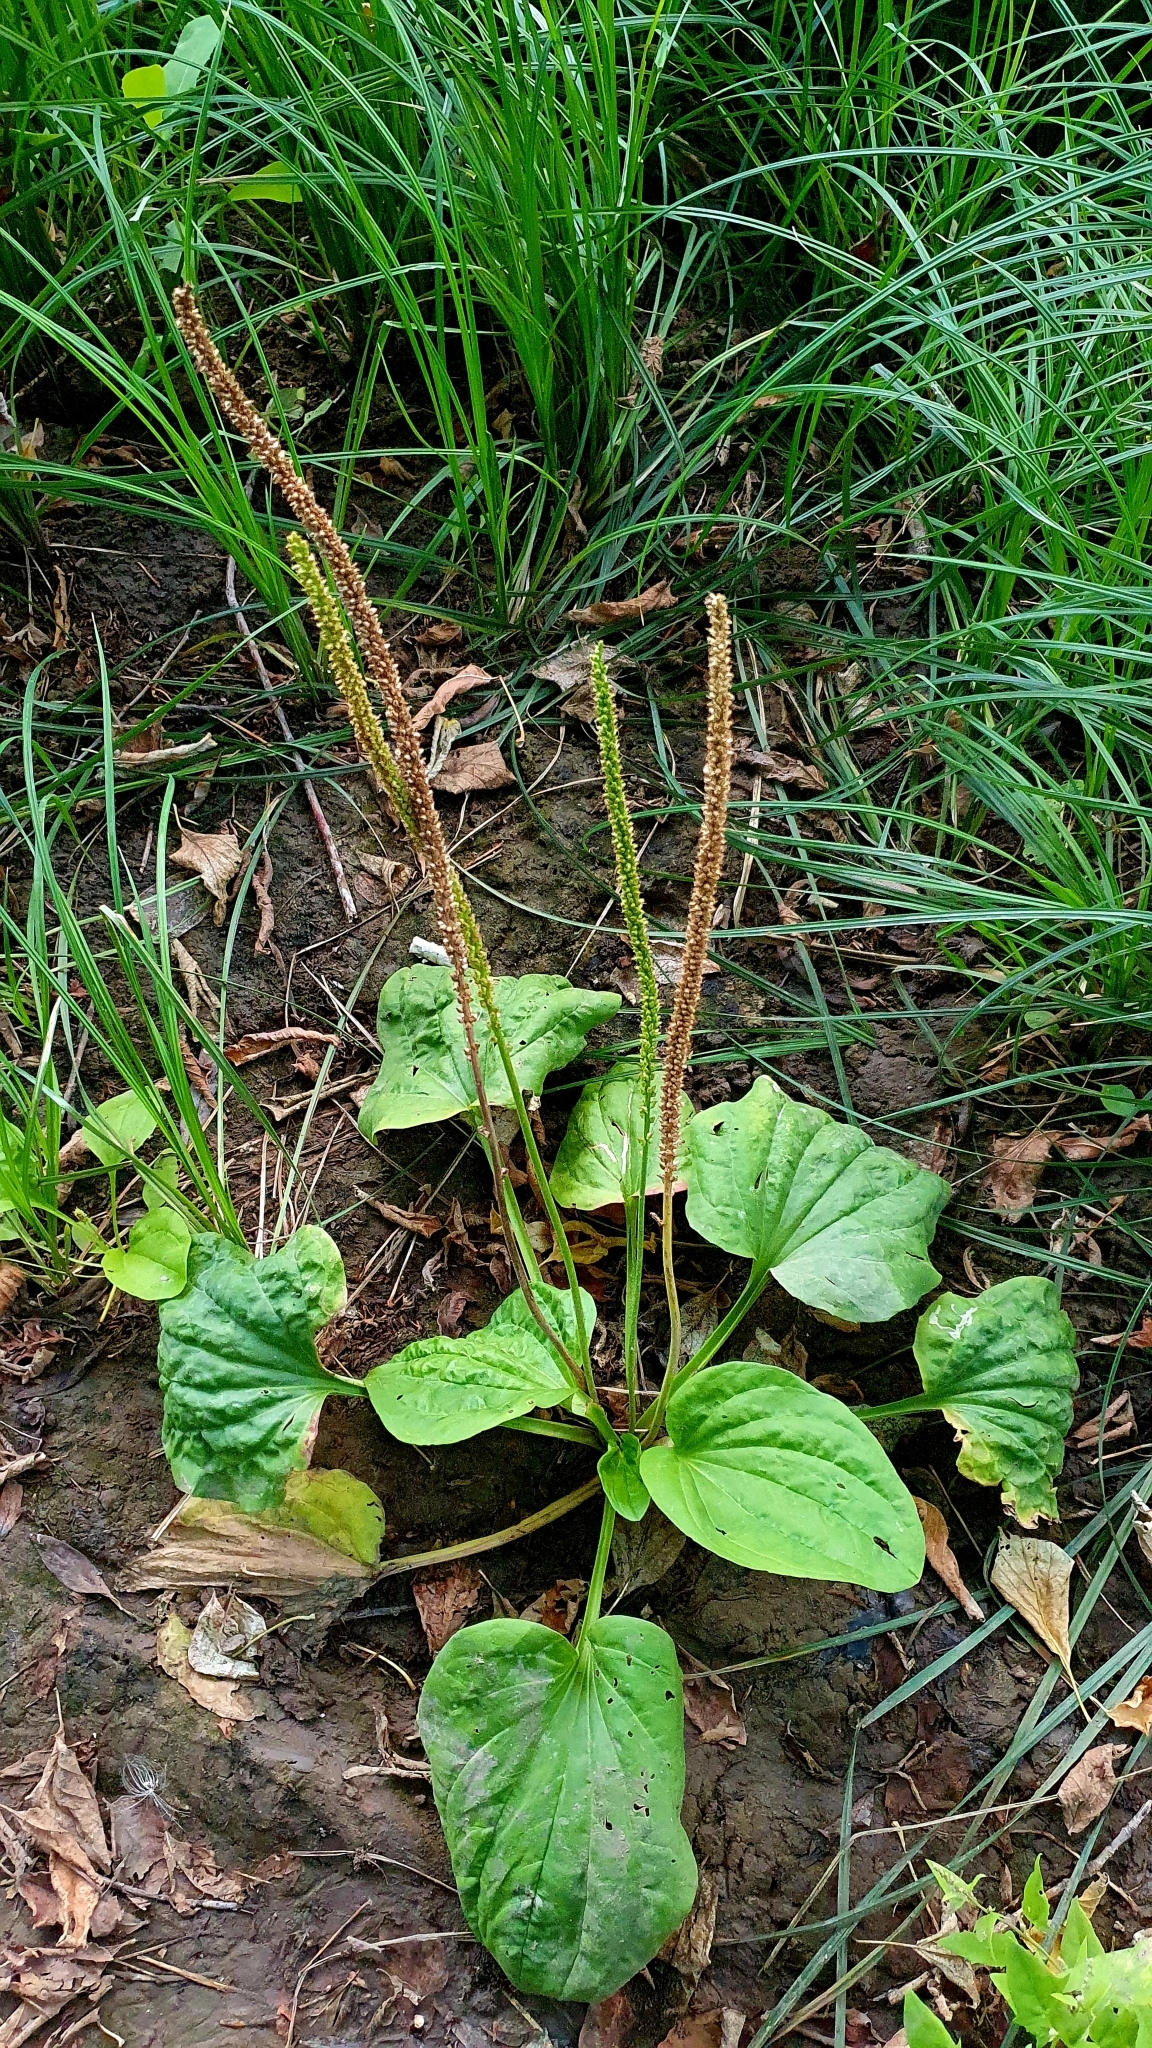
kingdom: Plantae
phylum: Tracheophyta
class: Magnoliopsida
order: Lamiales
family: Plantaginaceae
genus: Plantago
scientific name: Plantago major
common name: Common plantain
